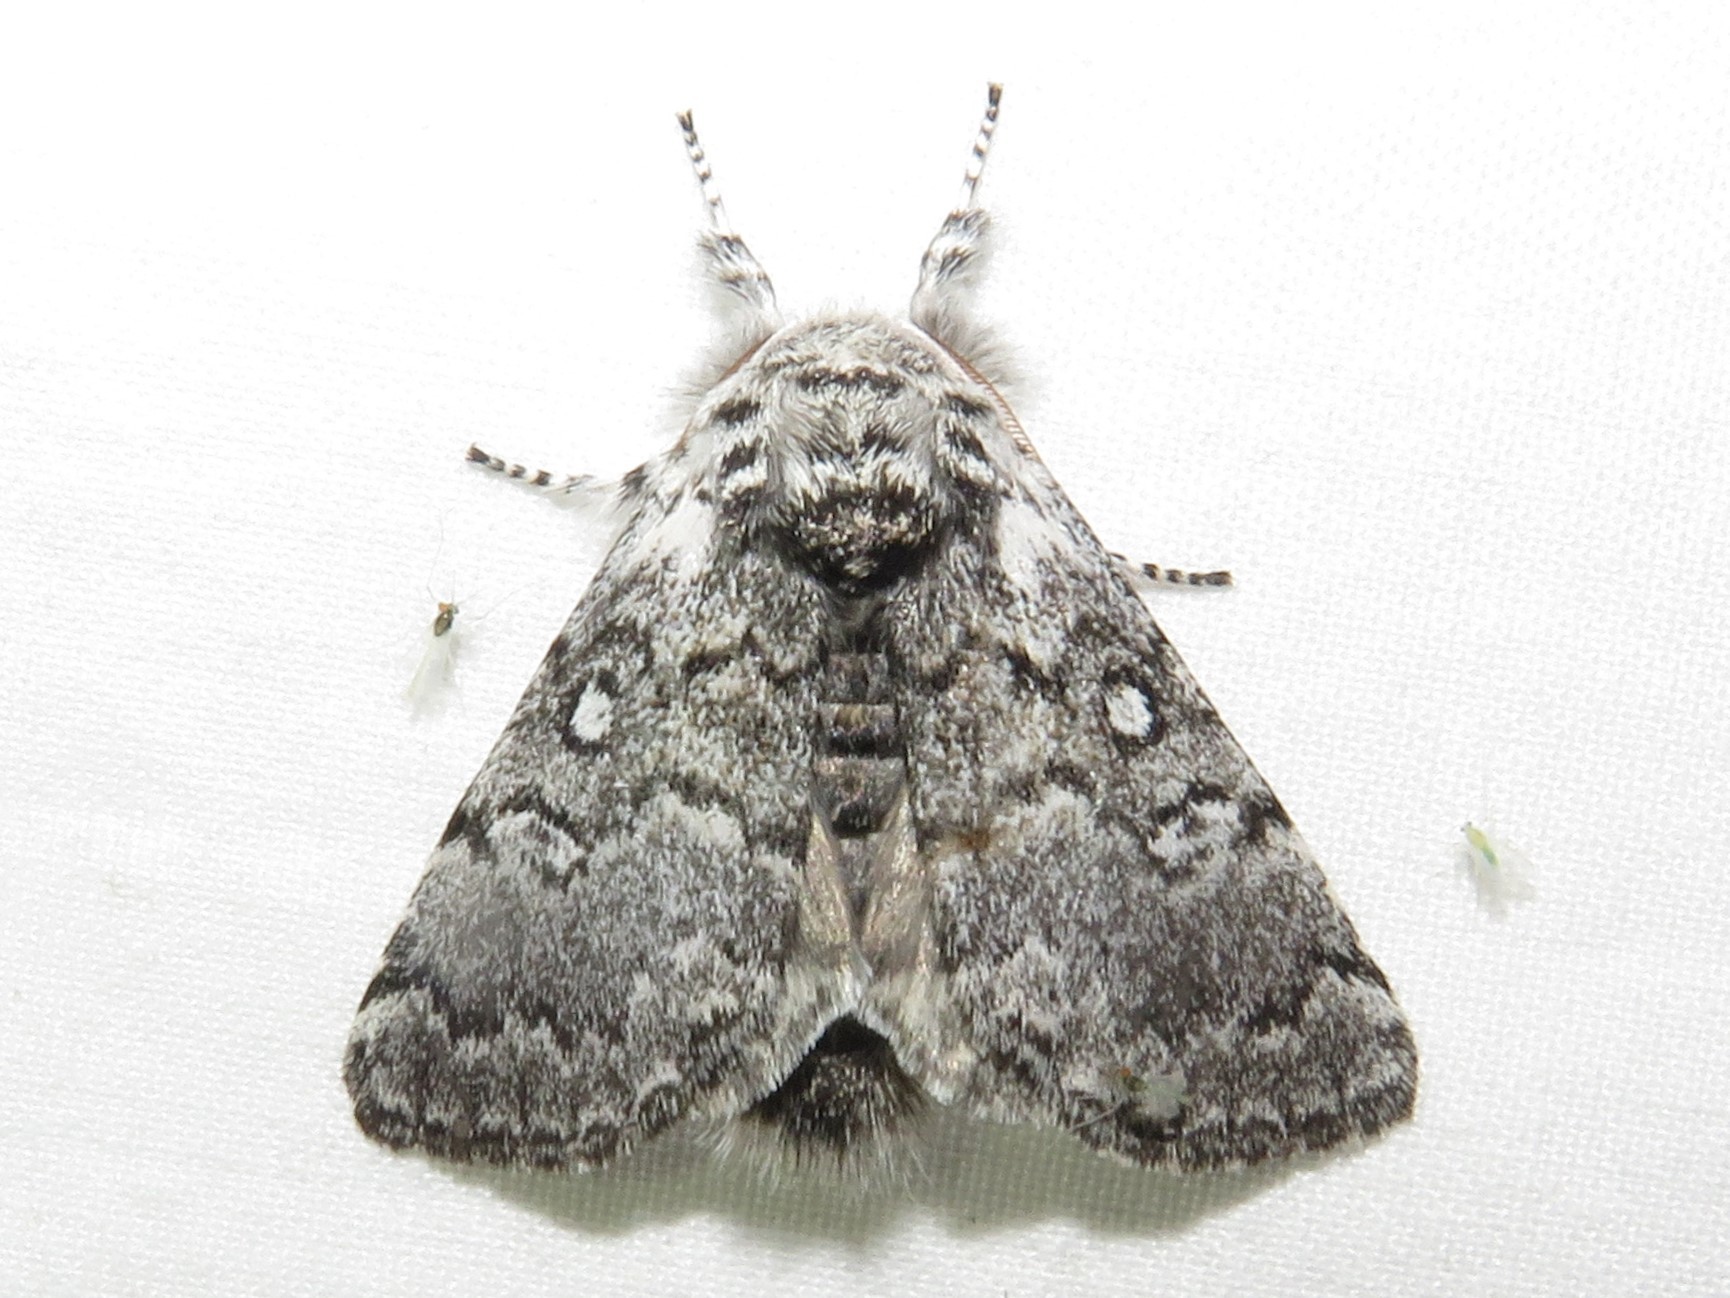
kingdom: Animalia
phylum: Arthropoda
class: Insecta
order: Lepidoptera
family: Noctuidae
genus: Colocasia
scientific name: Colocasia propinquilinea
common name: Close-banded demas
